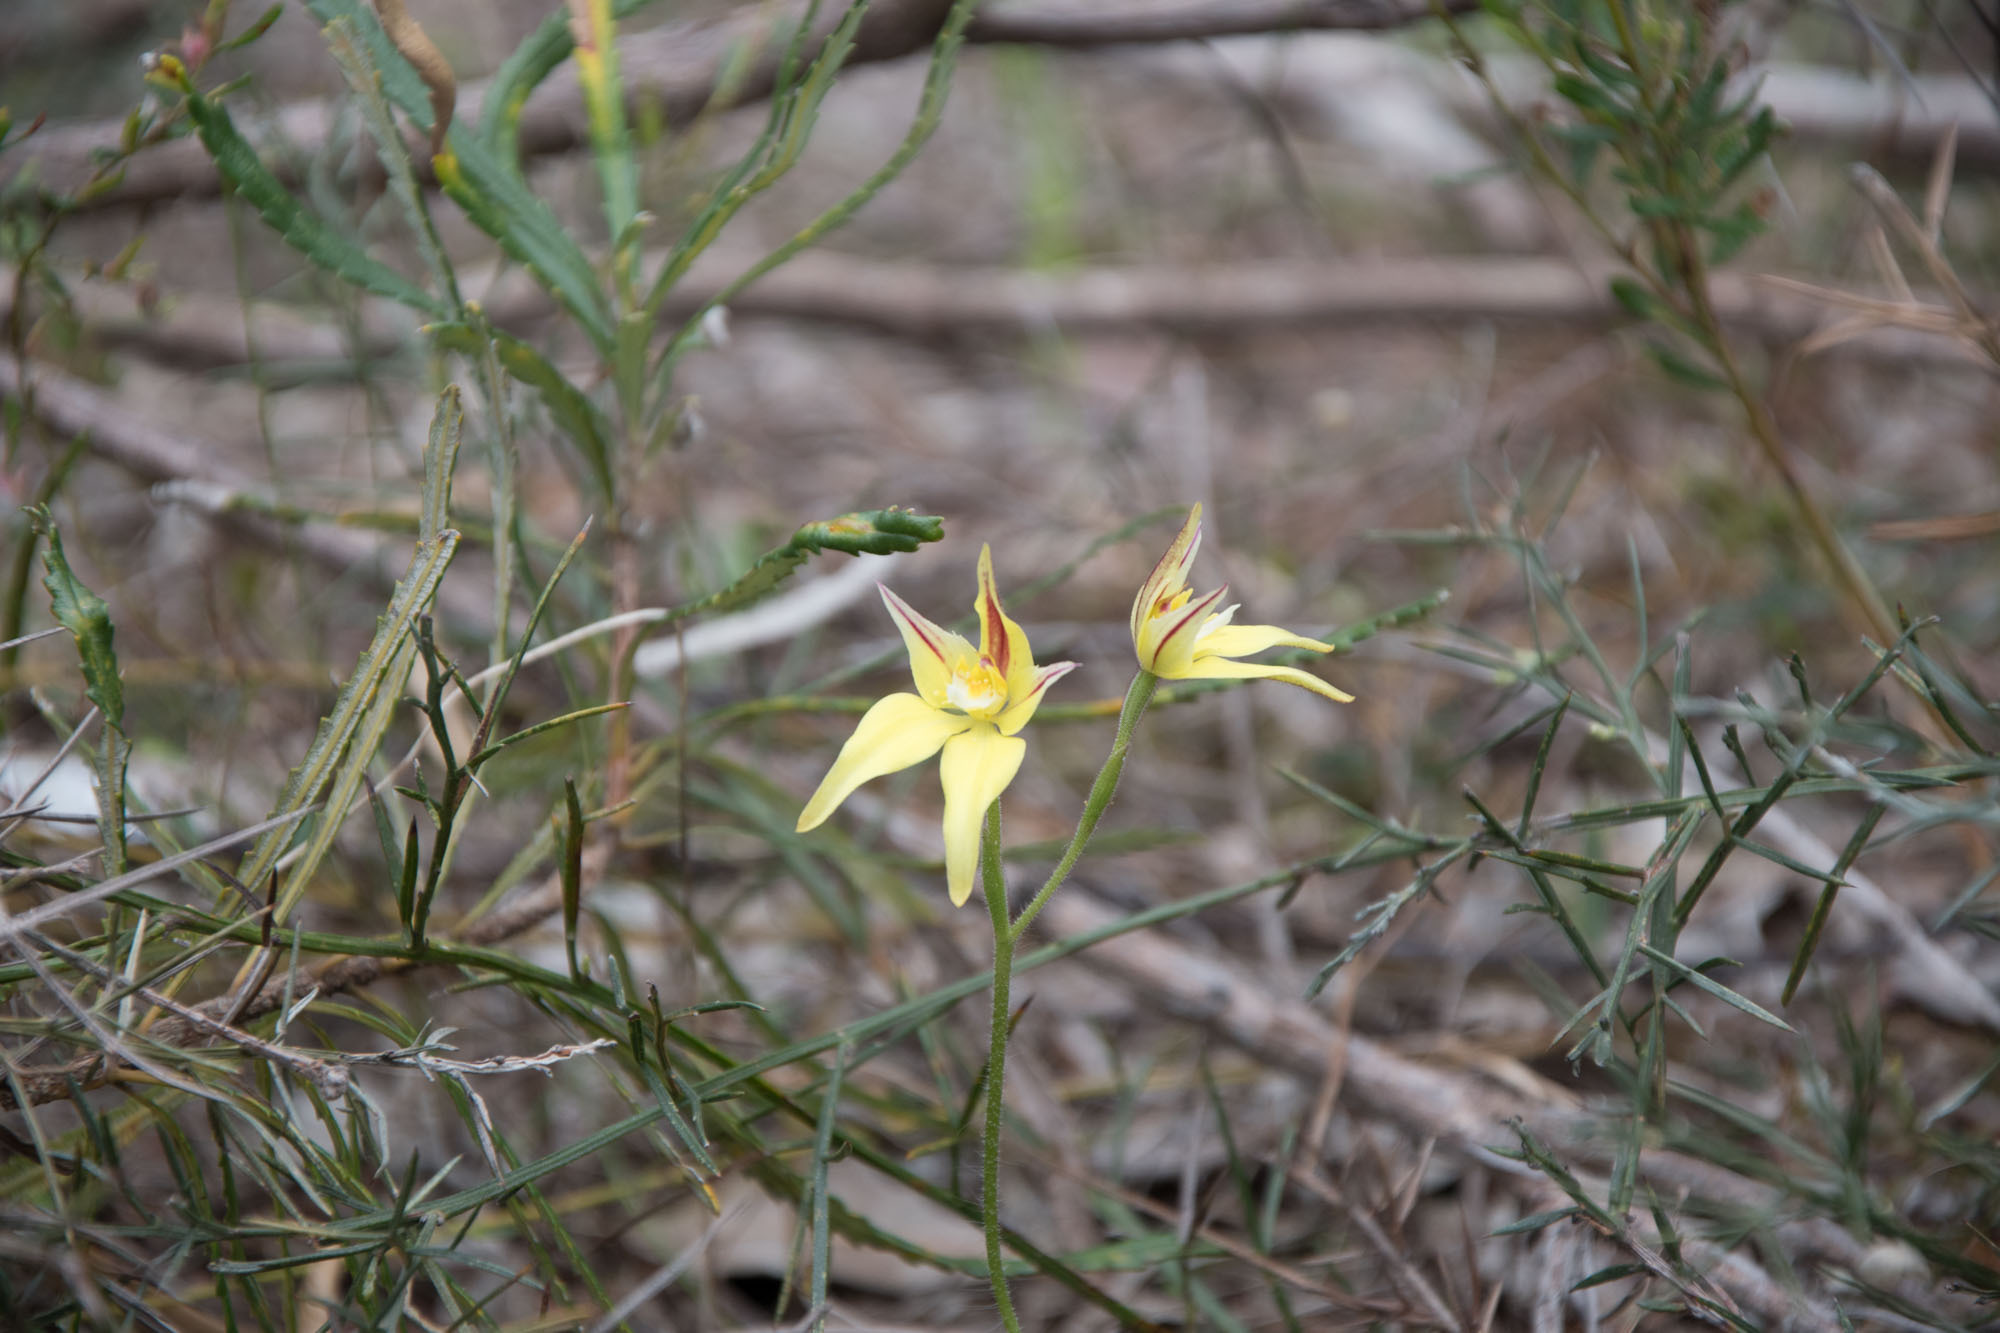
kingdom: Plantae
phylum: Tracheophyta
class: Liliopsida
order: Asparagales
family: Orchidaceae
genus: Caladenia
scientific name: Caladenia flava
